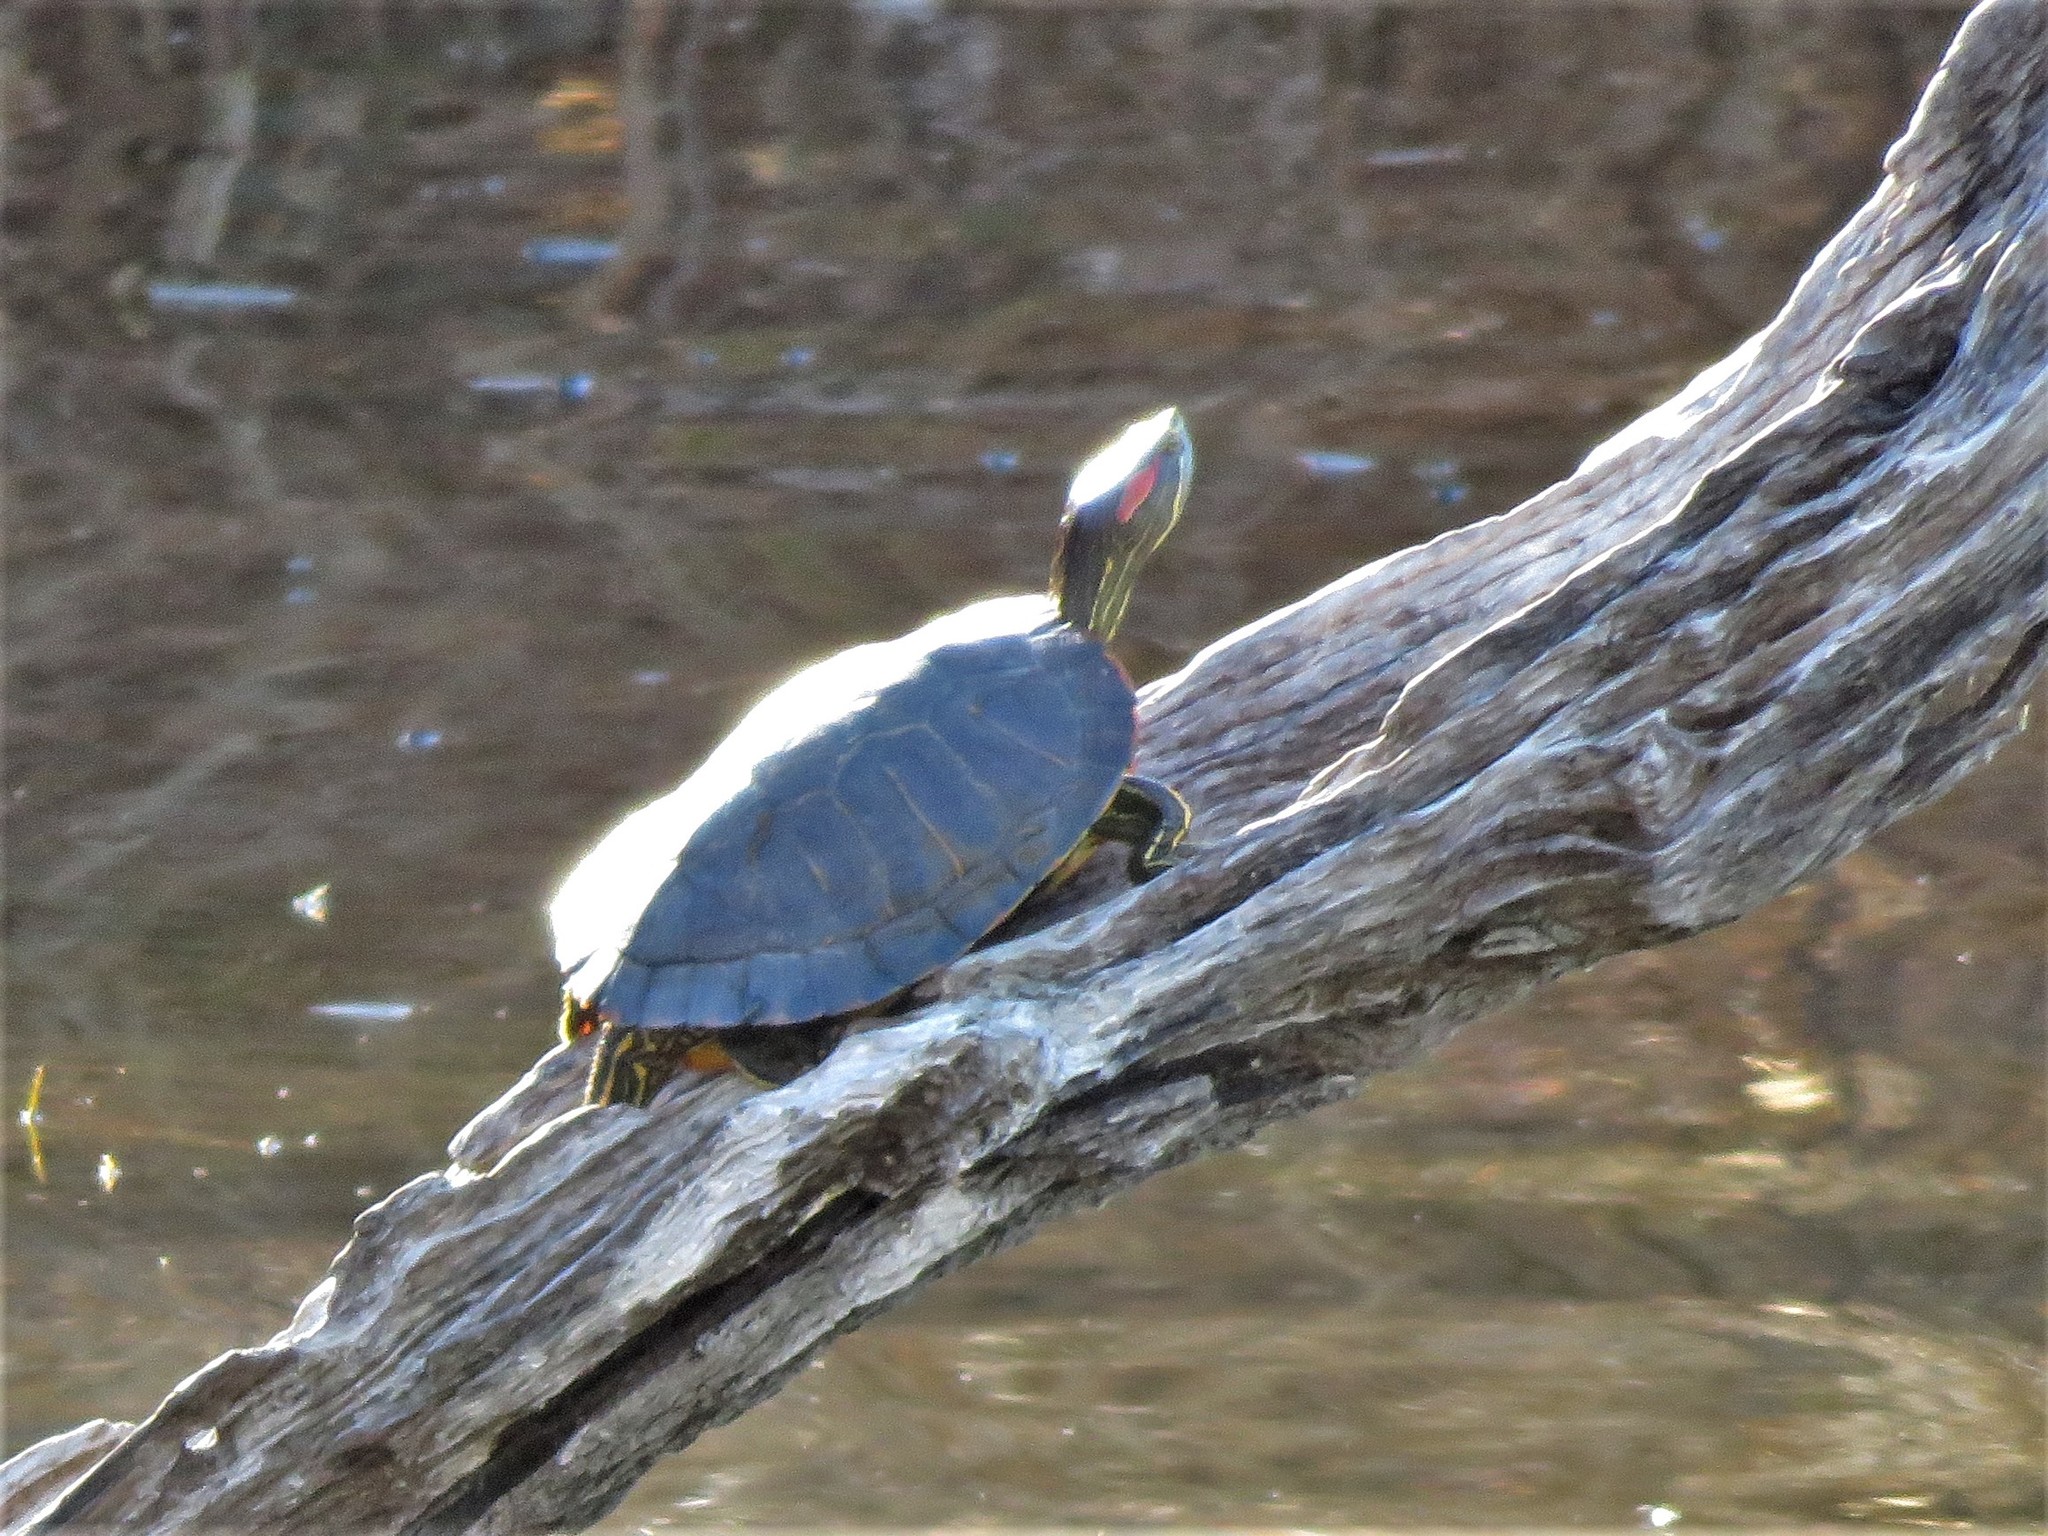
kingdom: Animalia
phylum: Chordata
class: Testudines
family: Emydidae
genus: Trachemys
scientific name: Trachemys scripta
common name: Slider
